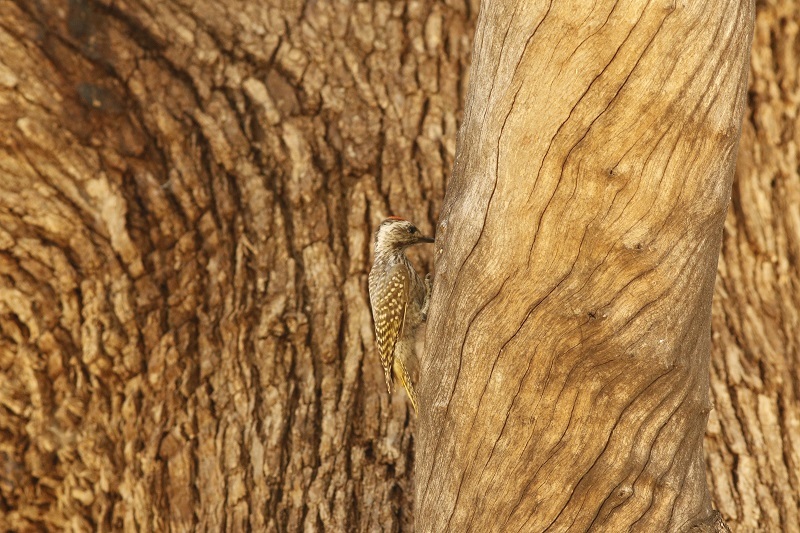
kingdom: Animalia
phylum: Chordata
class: Aves
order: Piciformes
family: Picidae
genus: Dendropicos
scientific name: Dendropicos fuscescens
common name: Cardinal woodpecker
